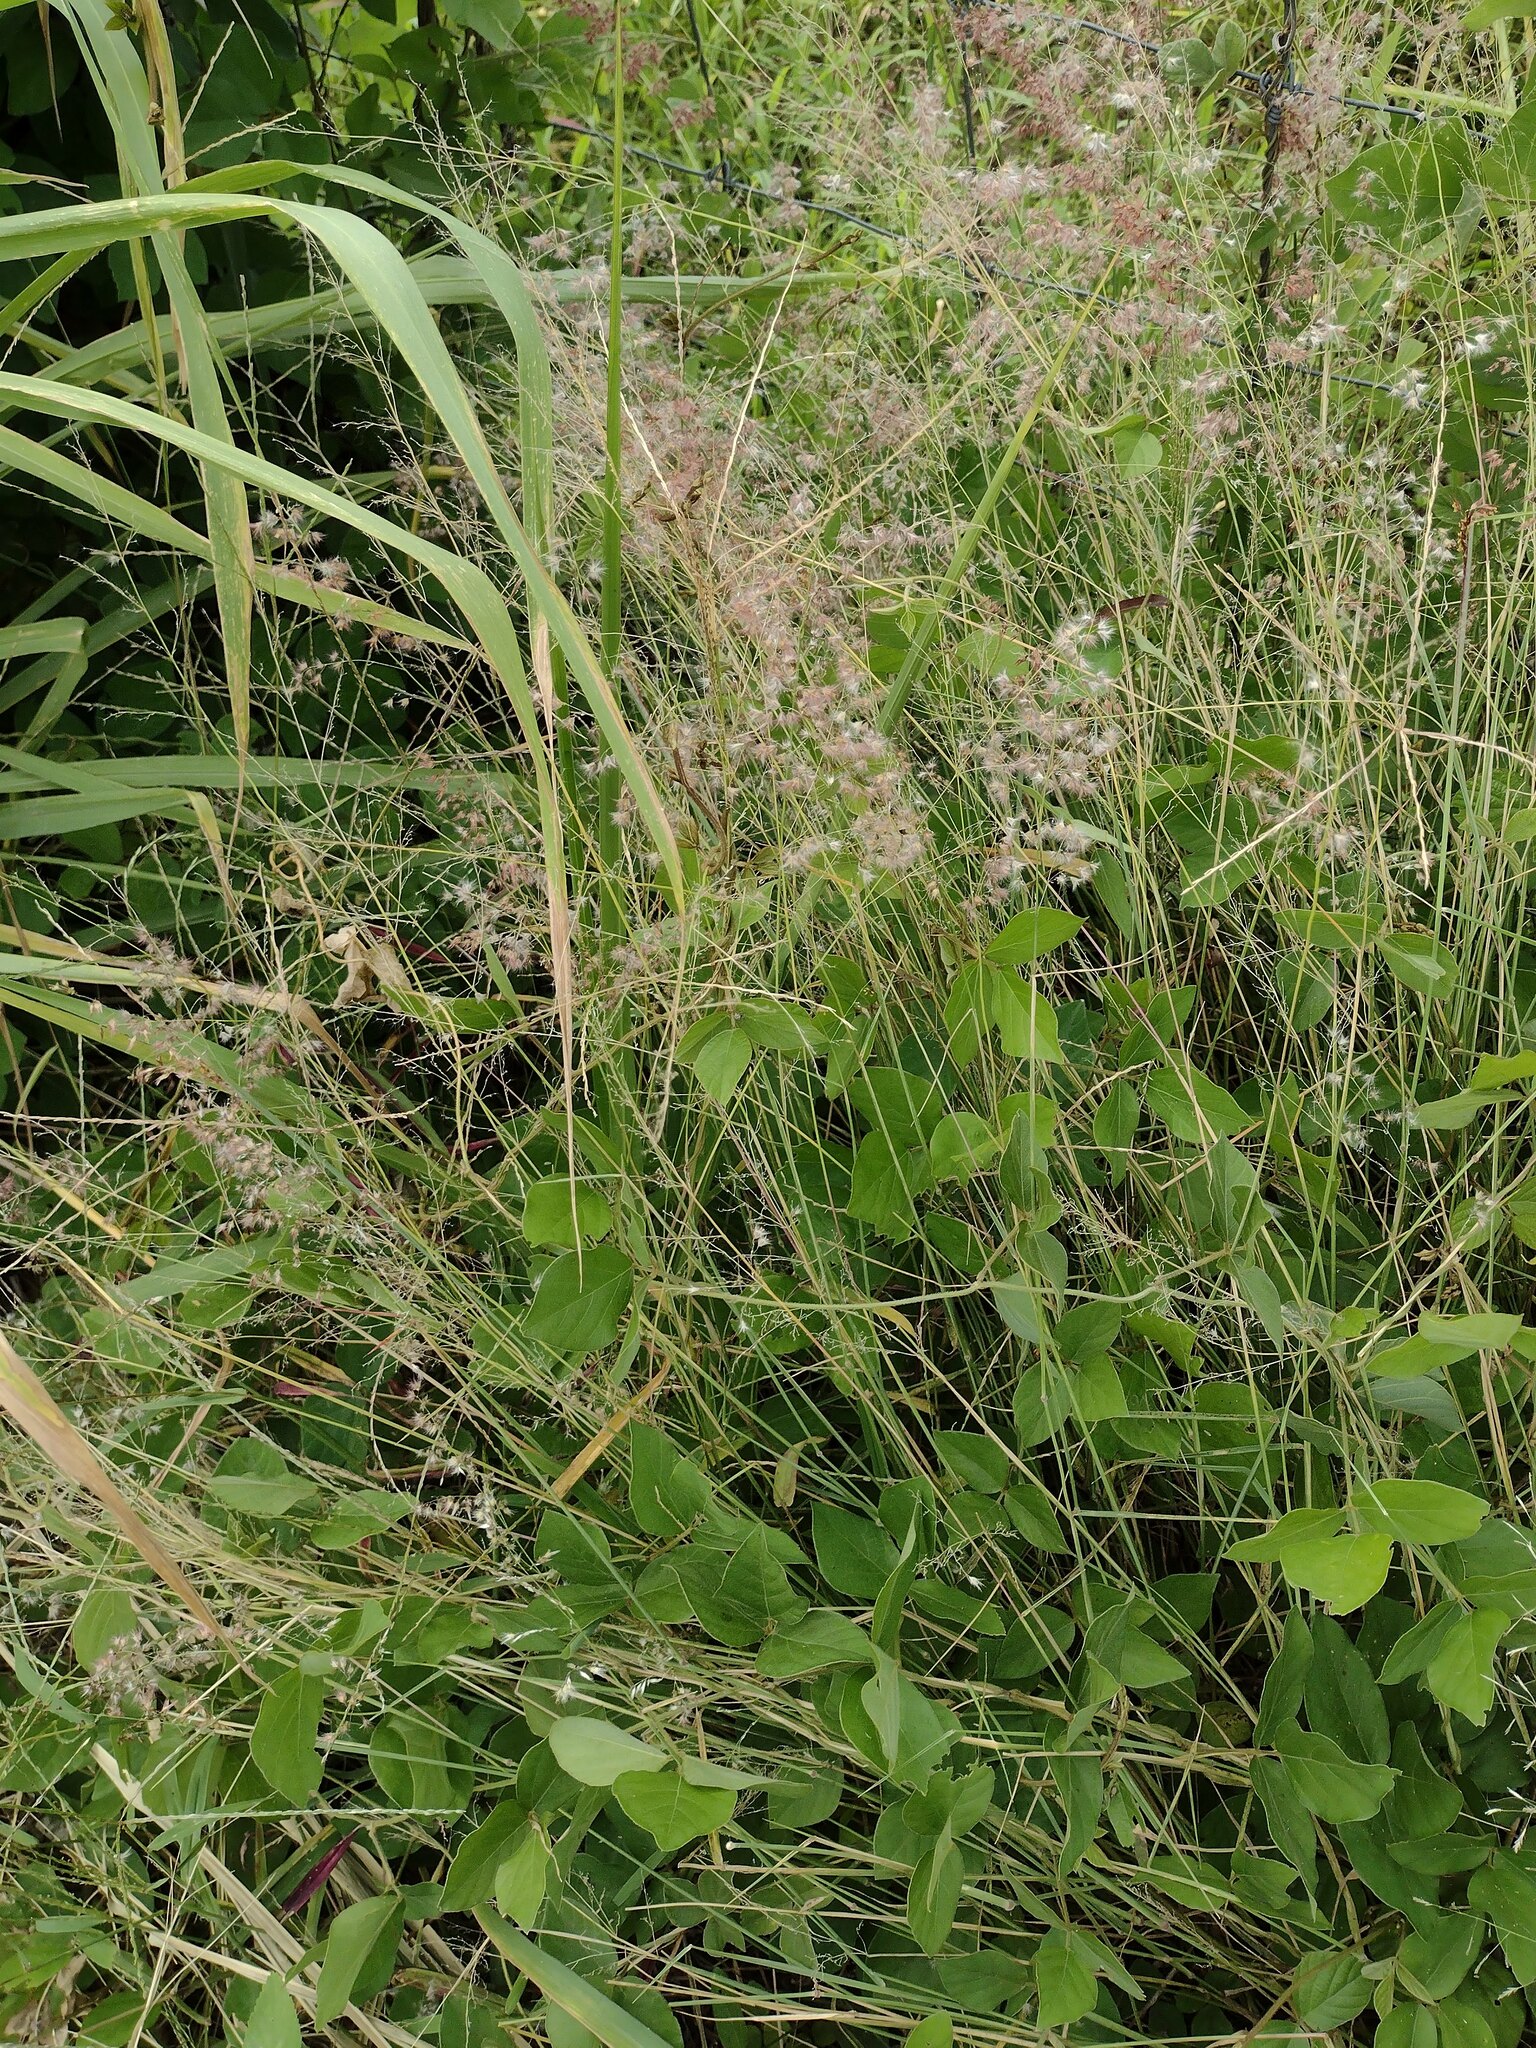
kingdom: Plantae
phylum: Tracheophyta
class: Liliopsida
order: Poales
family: Poaceae
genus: Melinis
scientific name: Melinis repens
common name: Rose natal grass
